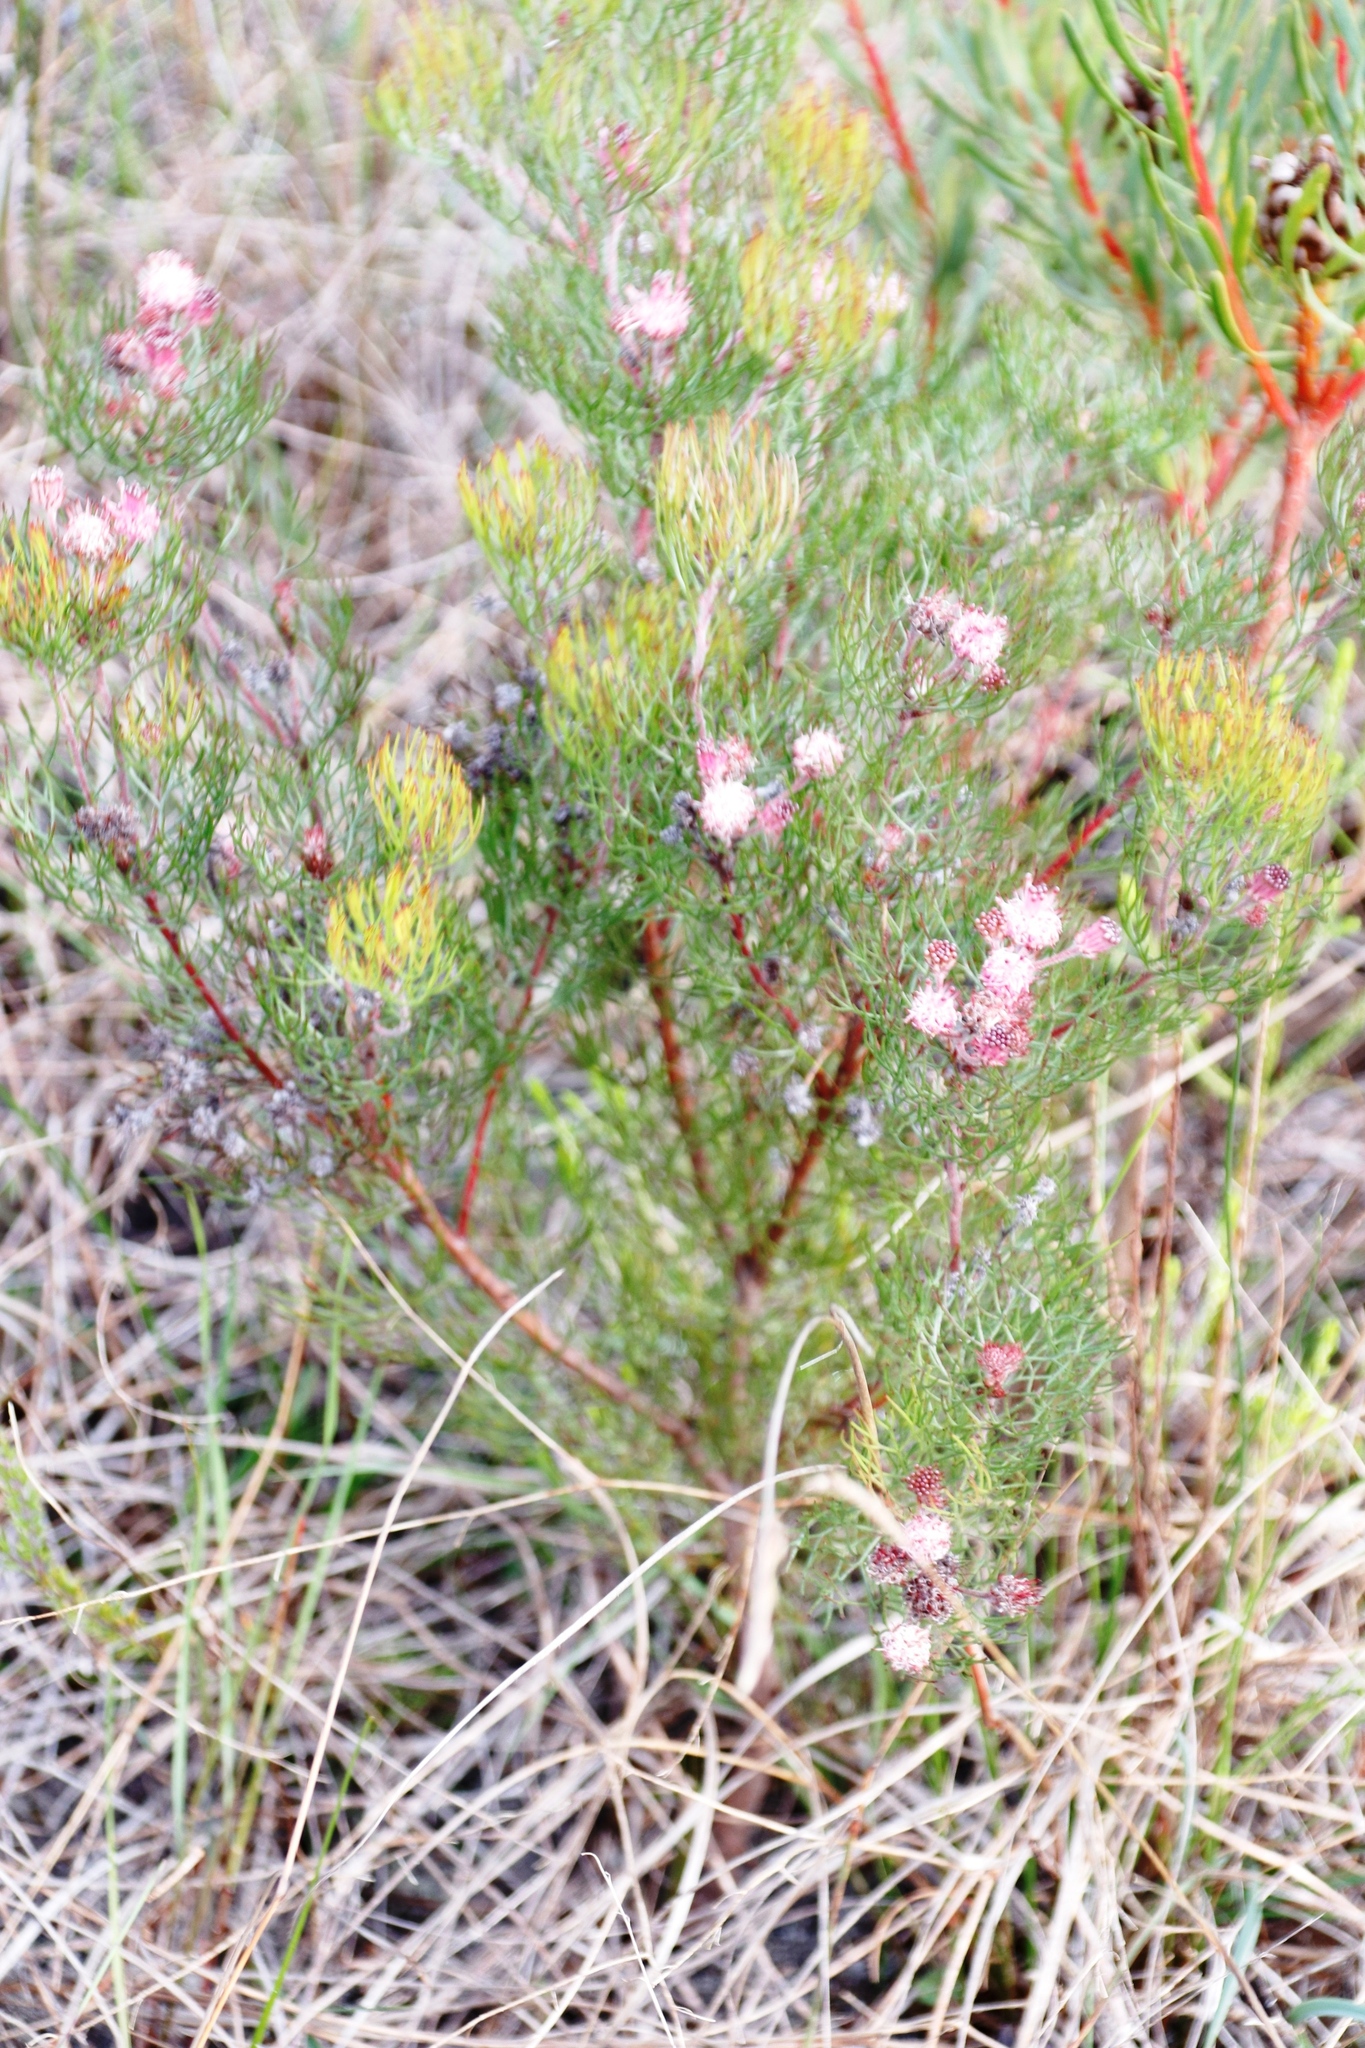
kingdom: Plantae
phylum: Tracheophyta
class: Magnoliopsida
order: Proteales
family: Proteaceae
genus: Serruria
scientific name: Serruria fasciflora
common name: Common pin spiderhead
